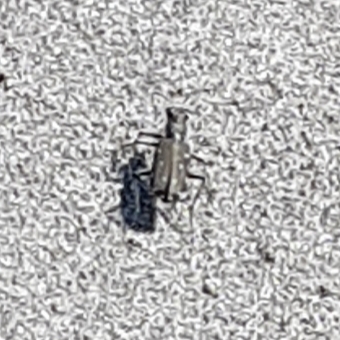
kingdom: Animalia
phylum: Arthropoda
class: Insecta
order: Coleoptera
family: Carabidae
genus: Cicindela
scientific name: Cicindela littoralis
